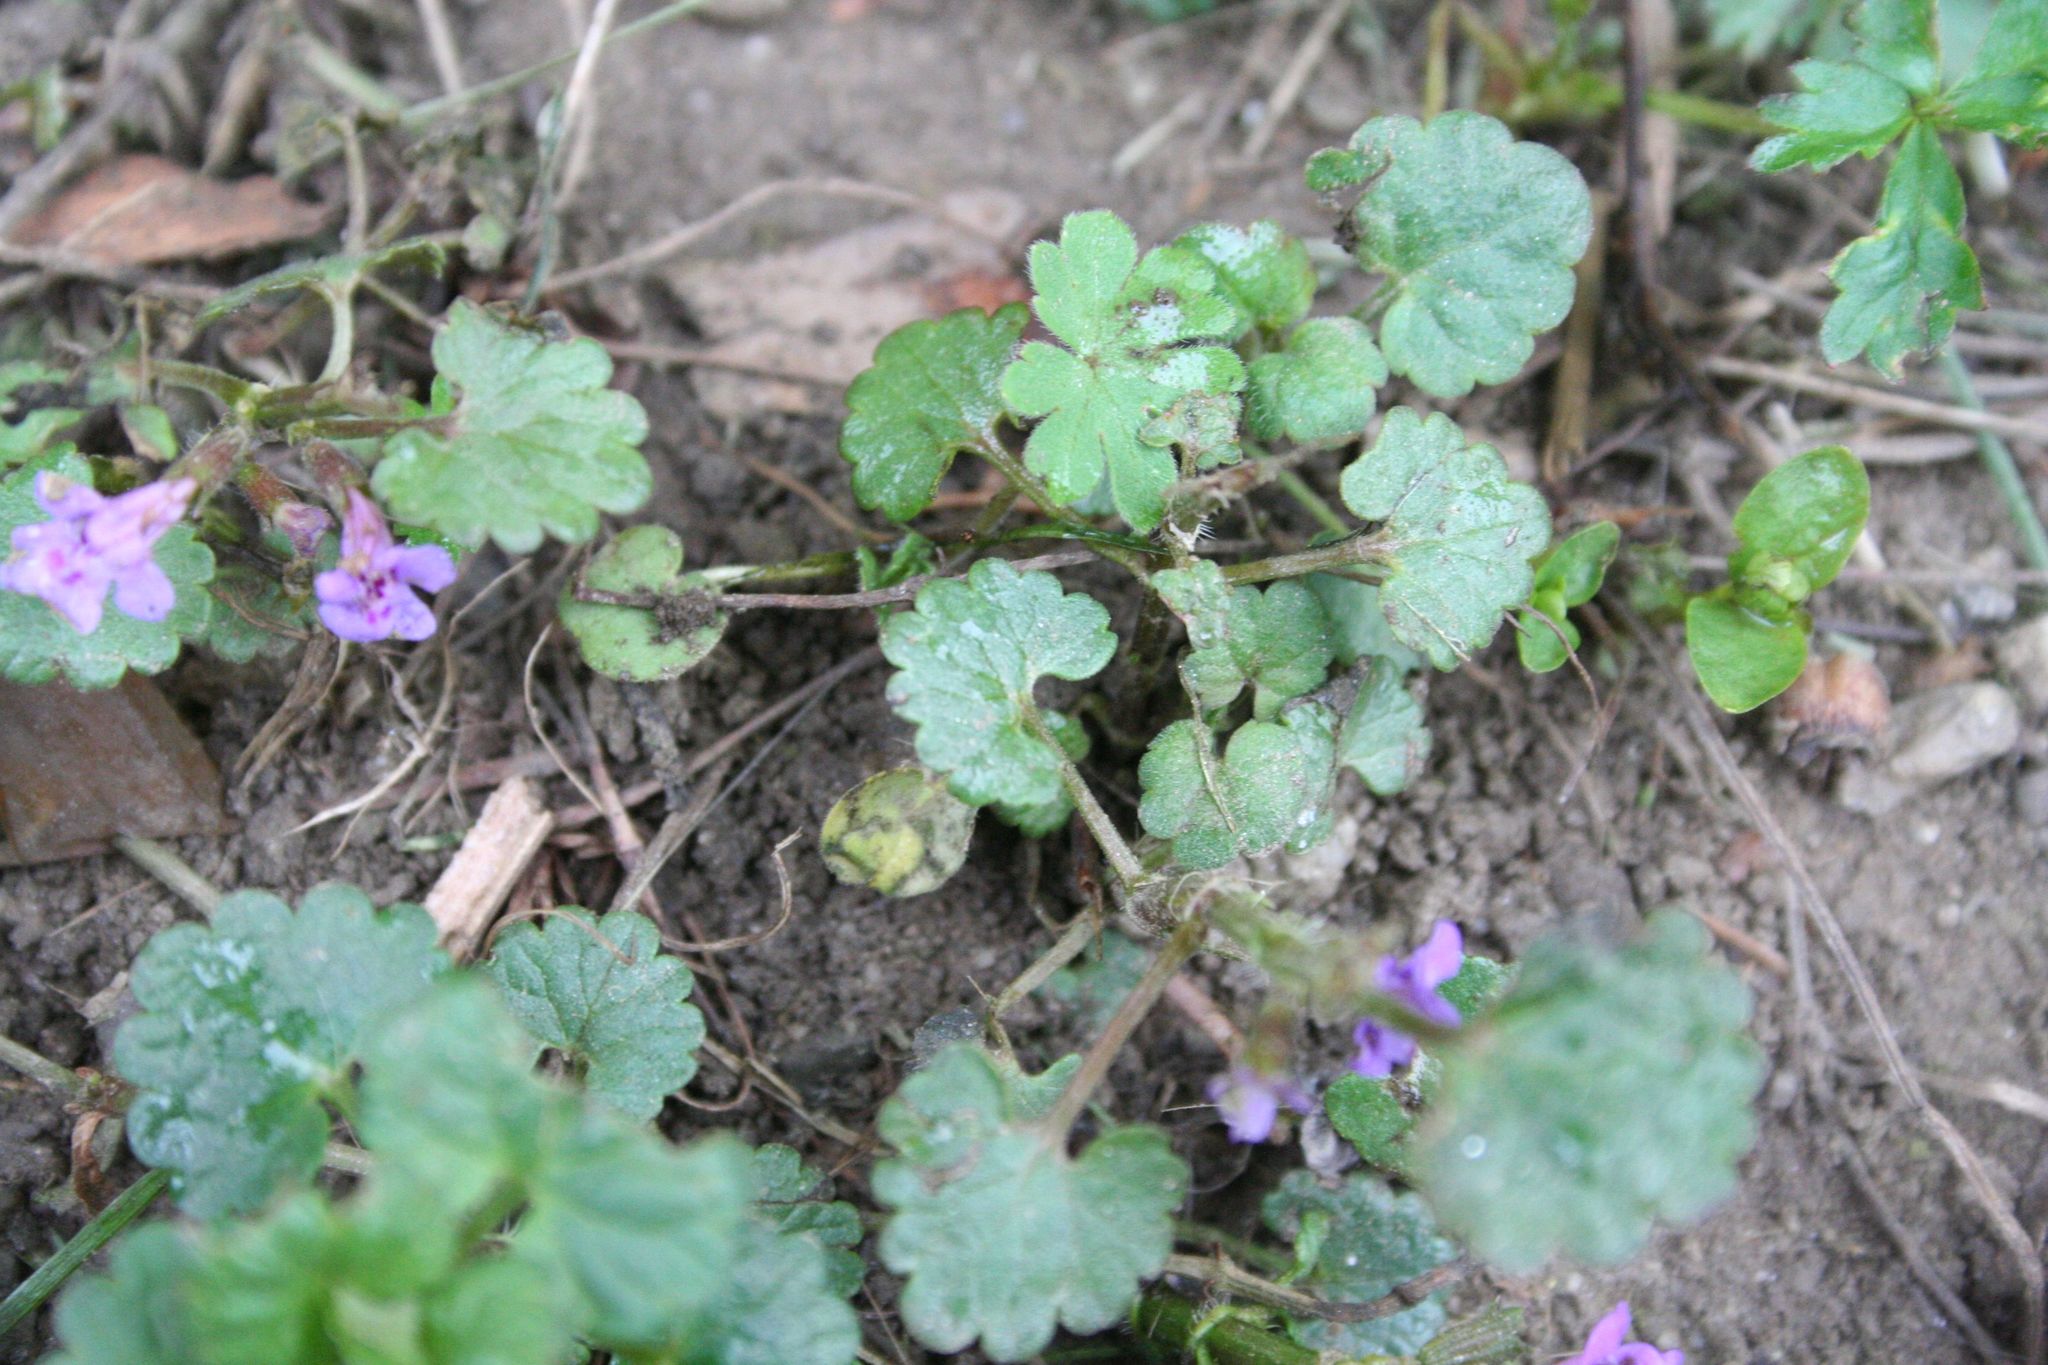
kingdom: Plantae
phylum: Tracheophyta
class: Magnoliopsida
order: Lamiales
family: Lamiaceae
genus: Glechoma
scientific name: Glechoma hederacea
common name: Ground ivy
